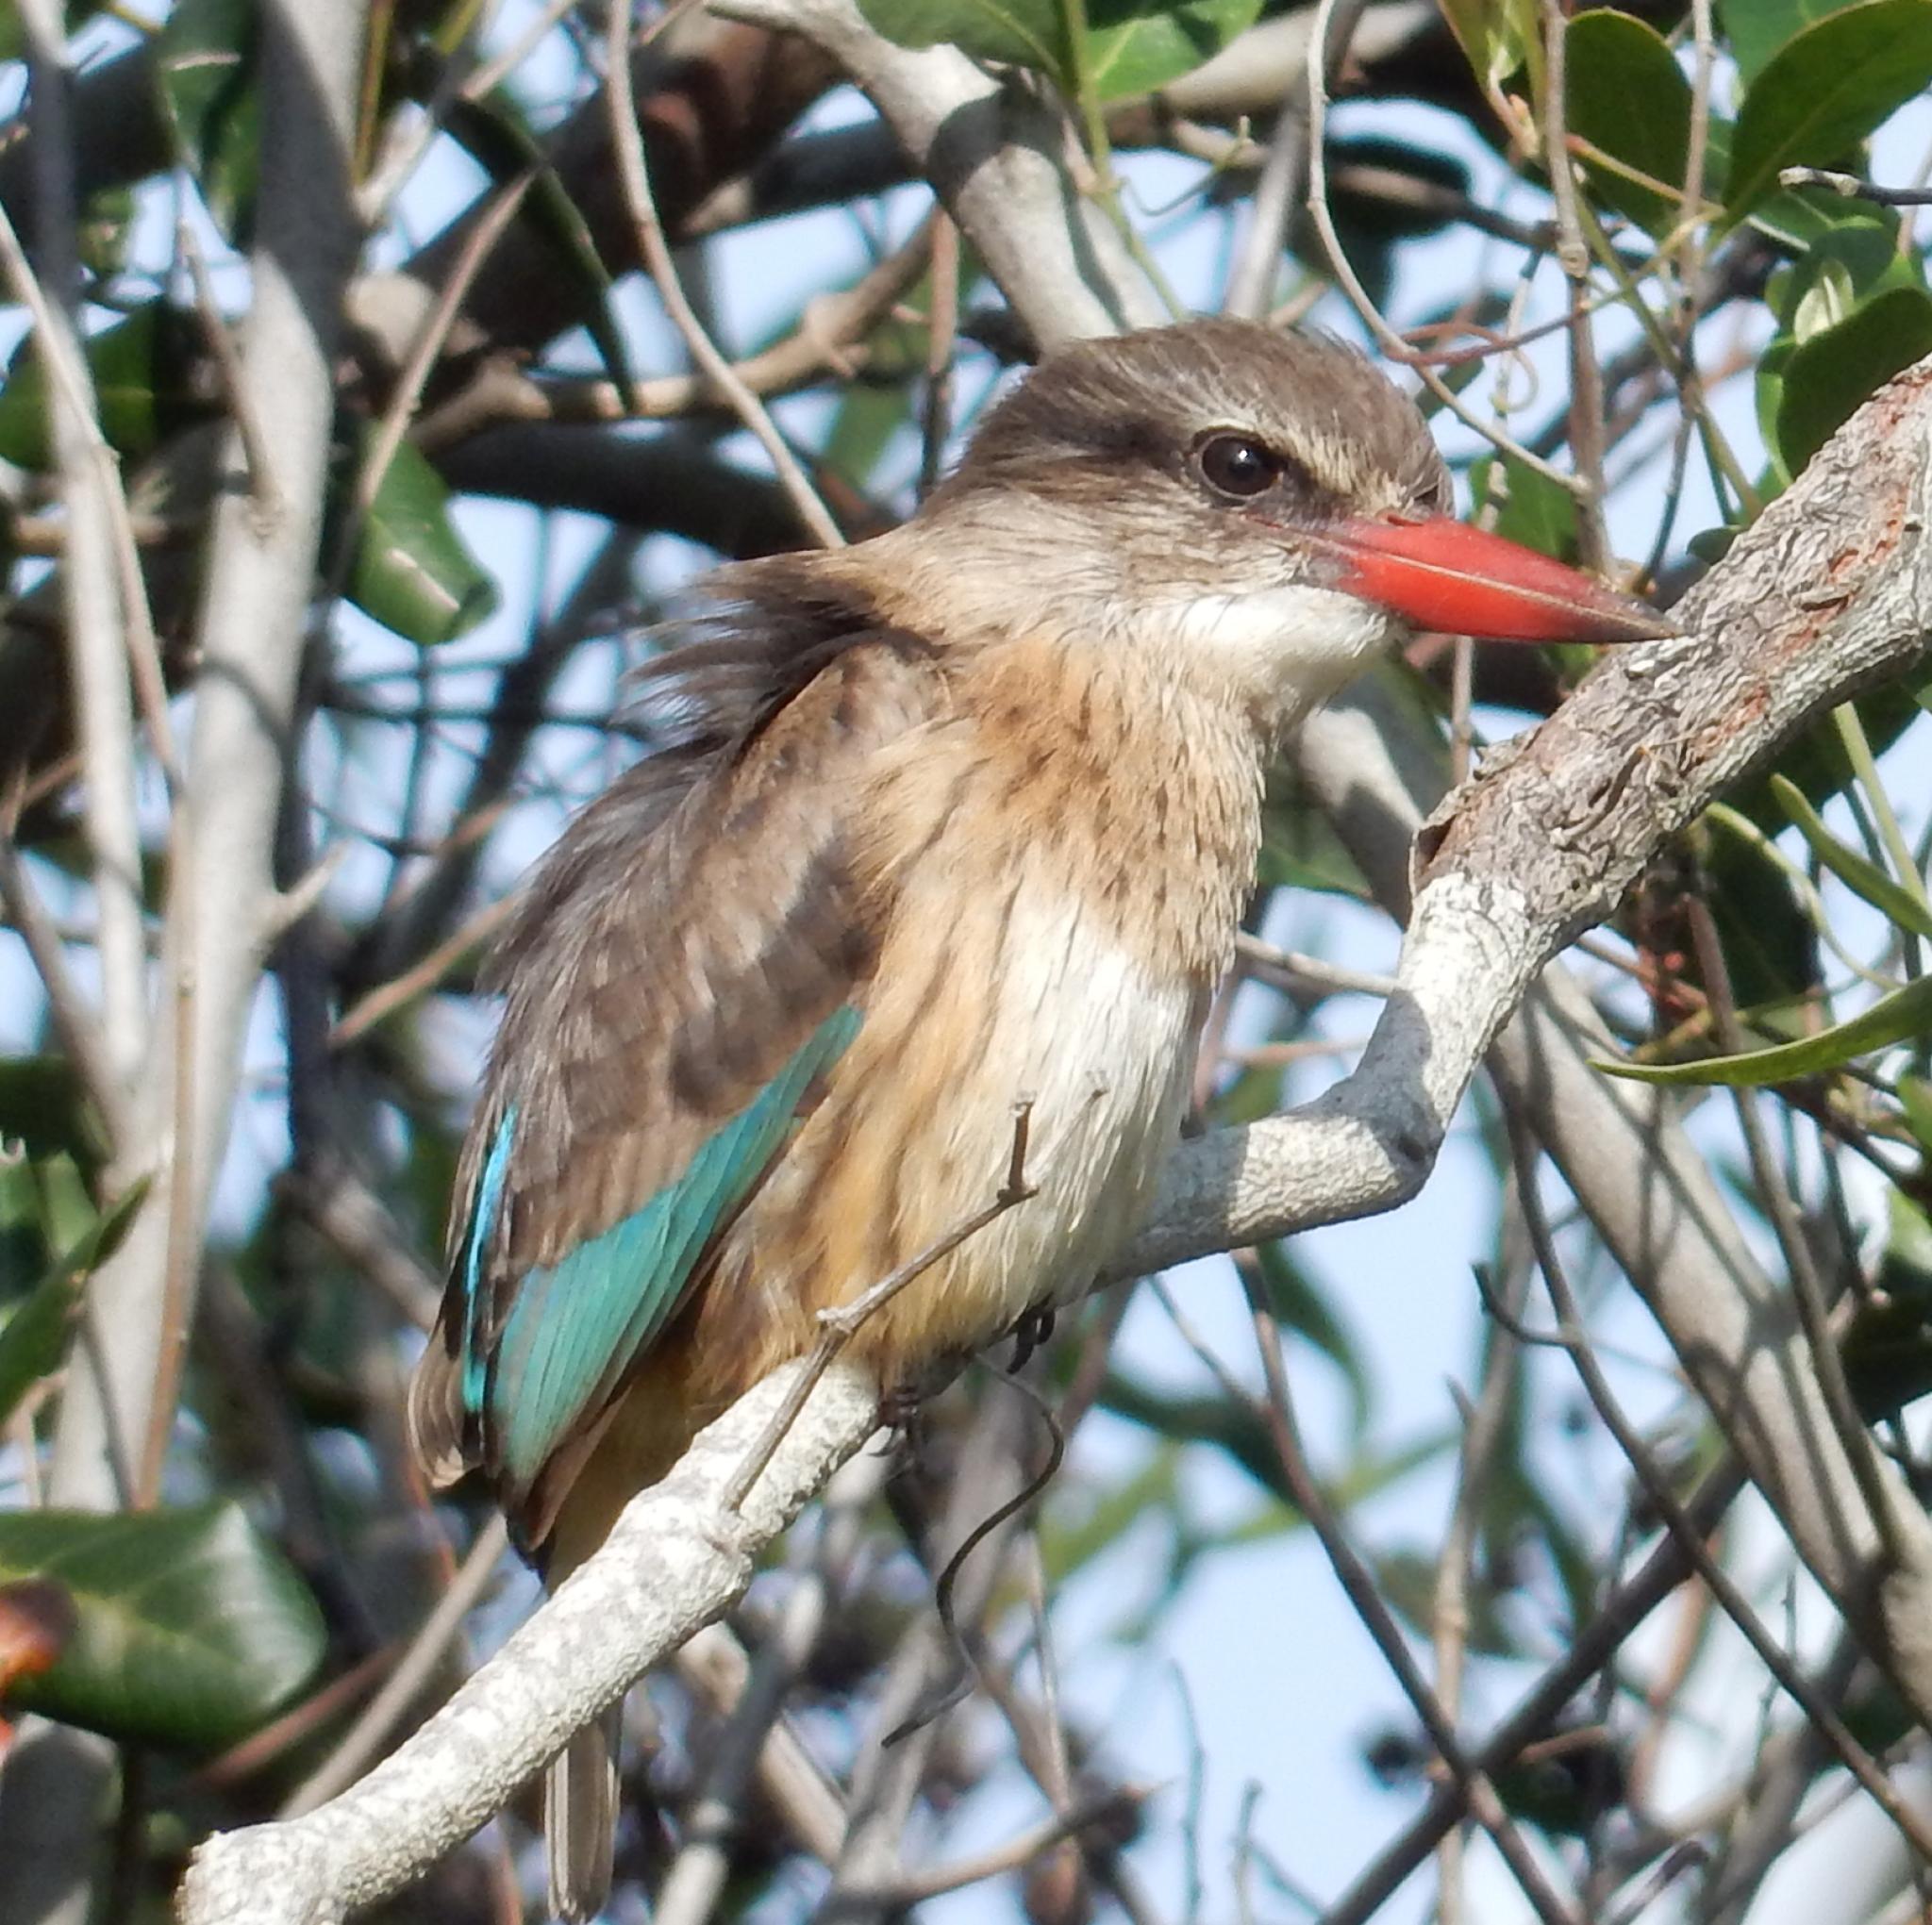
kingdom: Animalia
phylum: Chordata
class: Aves
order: Coraciiformes
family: Alcedinidae
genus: Halcyon
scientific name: Halcyon albiventris
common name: Brown-hooded kingfisher
